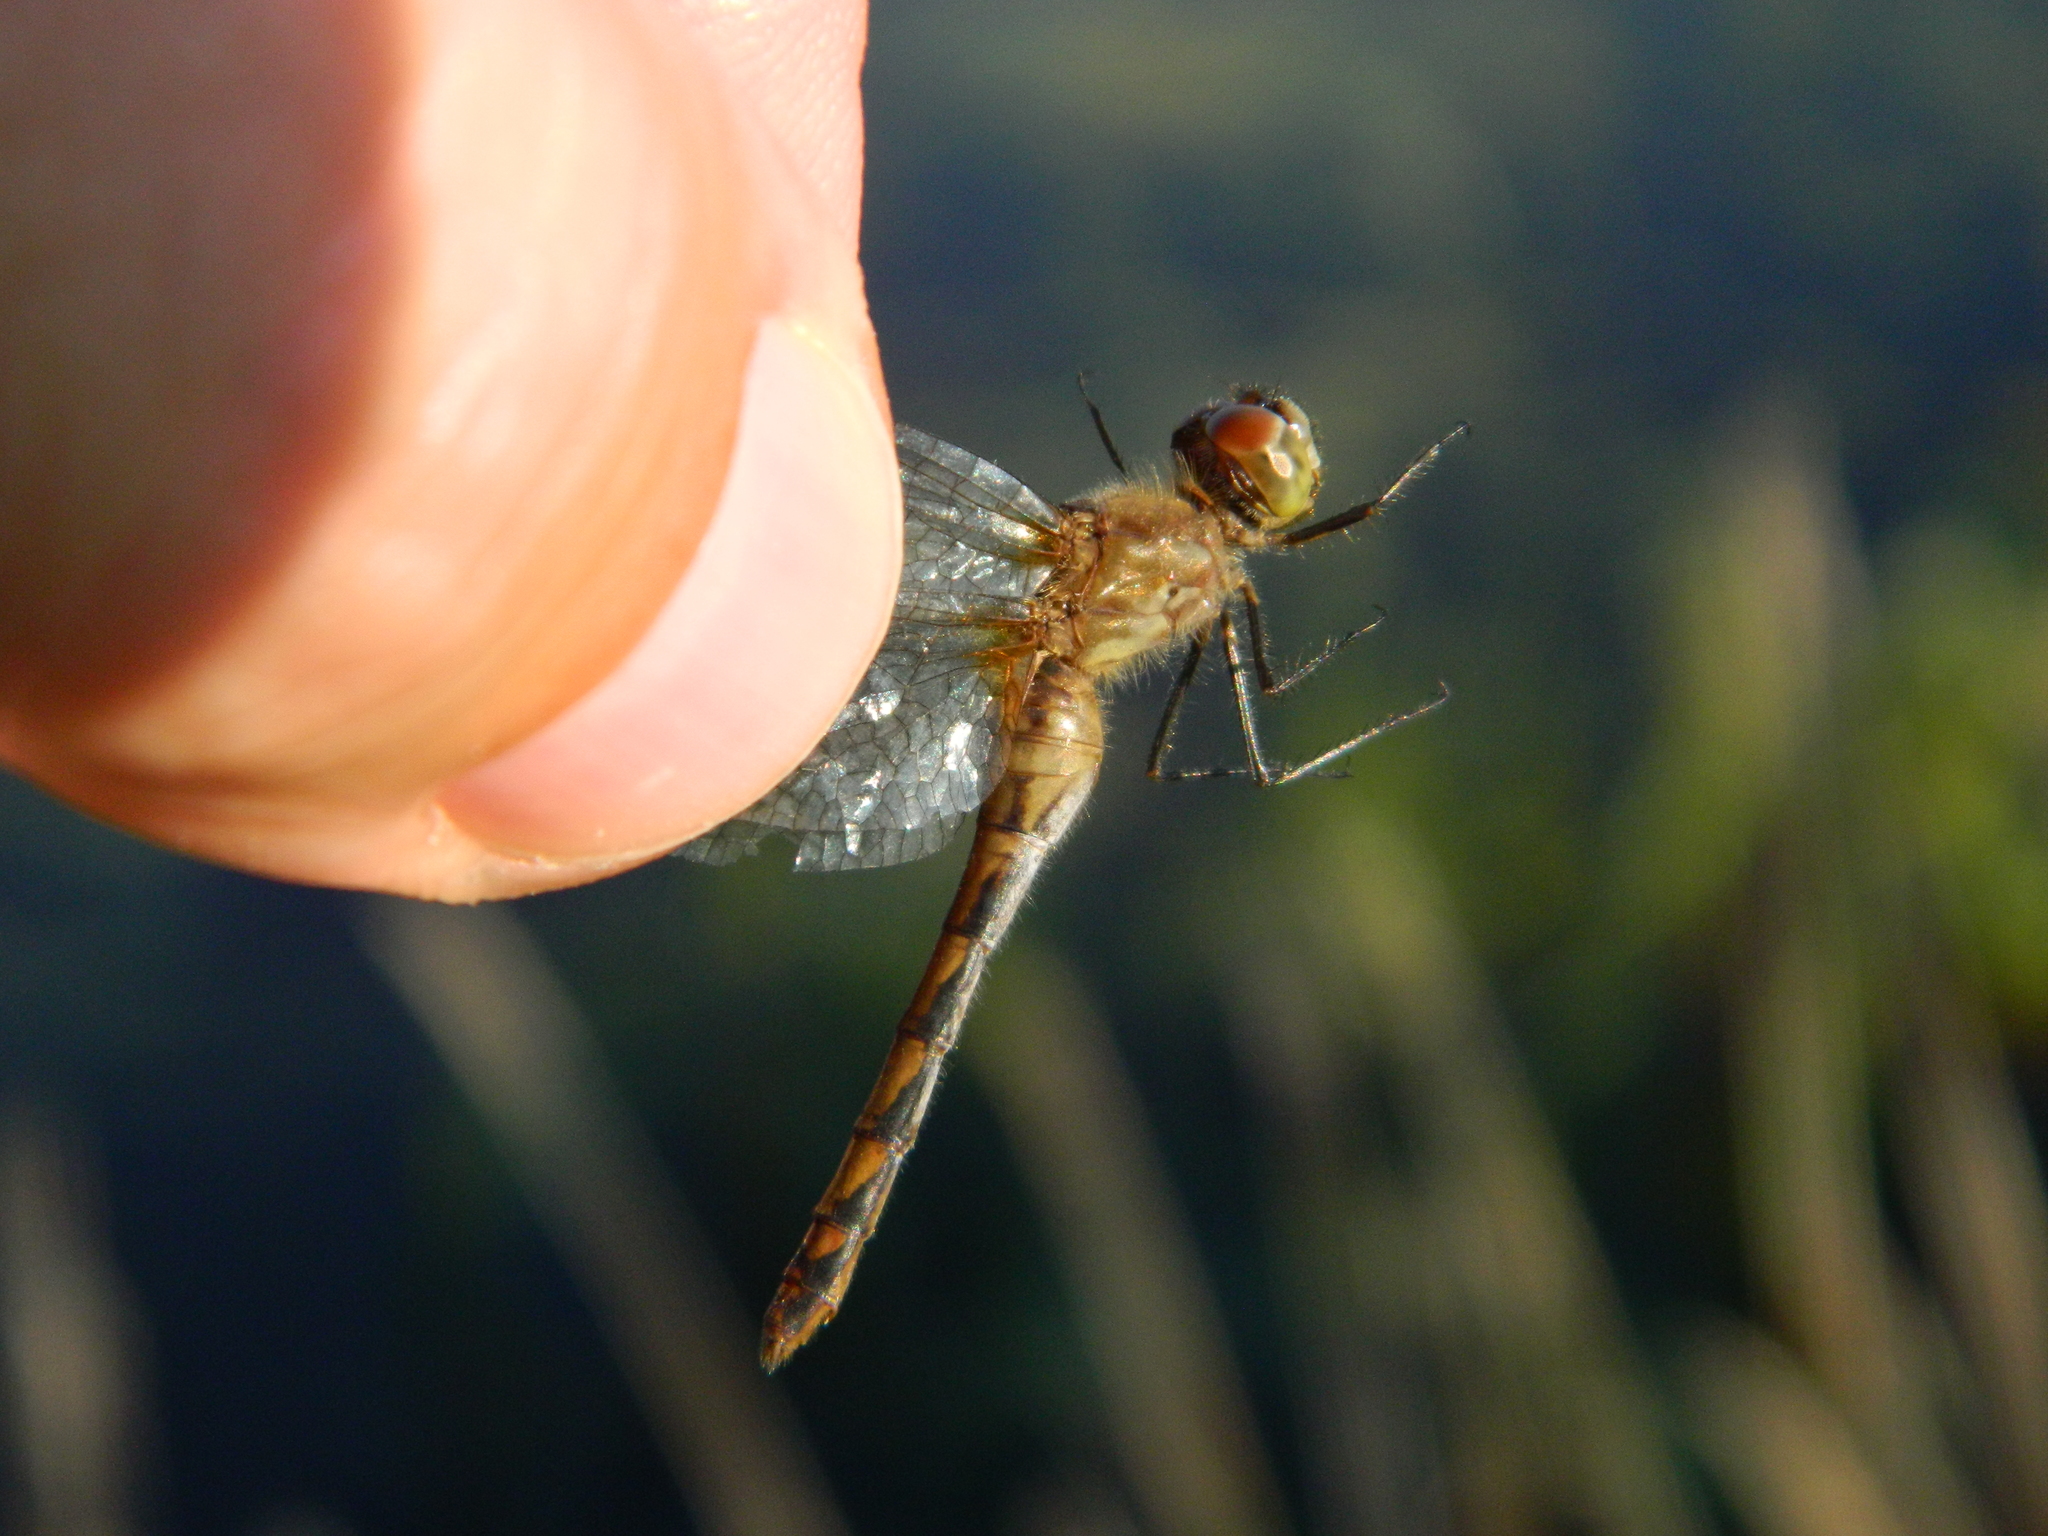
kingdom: Animalia
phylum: Arthropoda
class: Insecta
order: Odonata
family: Libellulidae
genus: Sympetrum
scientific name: Sympetrum obtrusum
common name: White-faced meadowhawk
